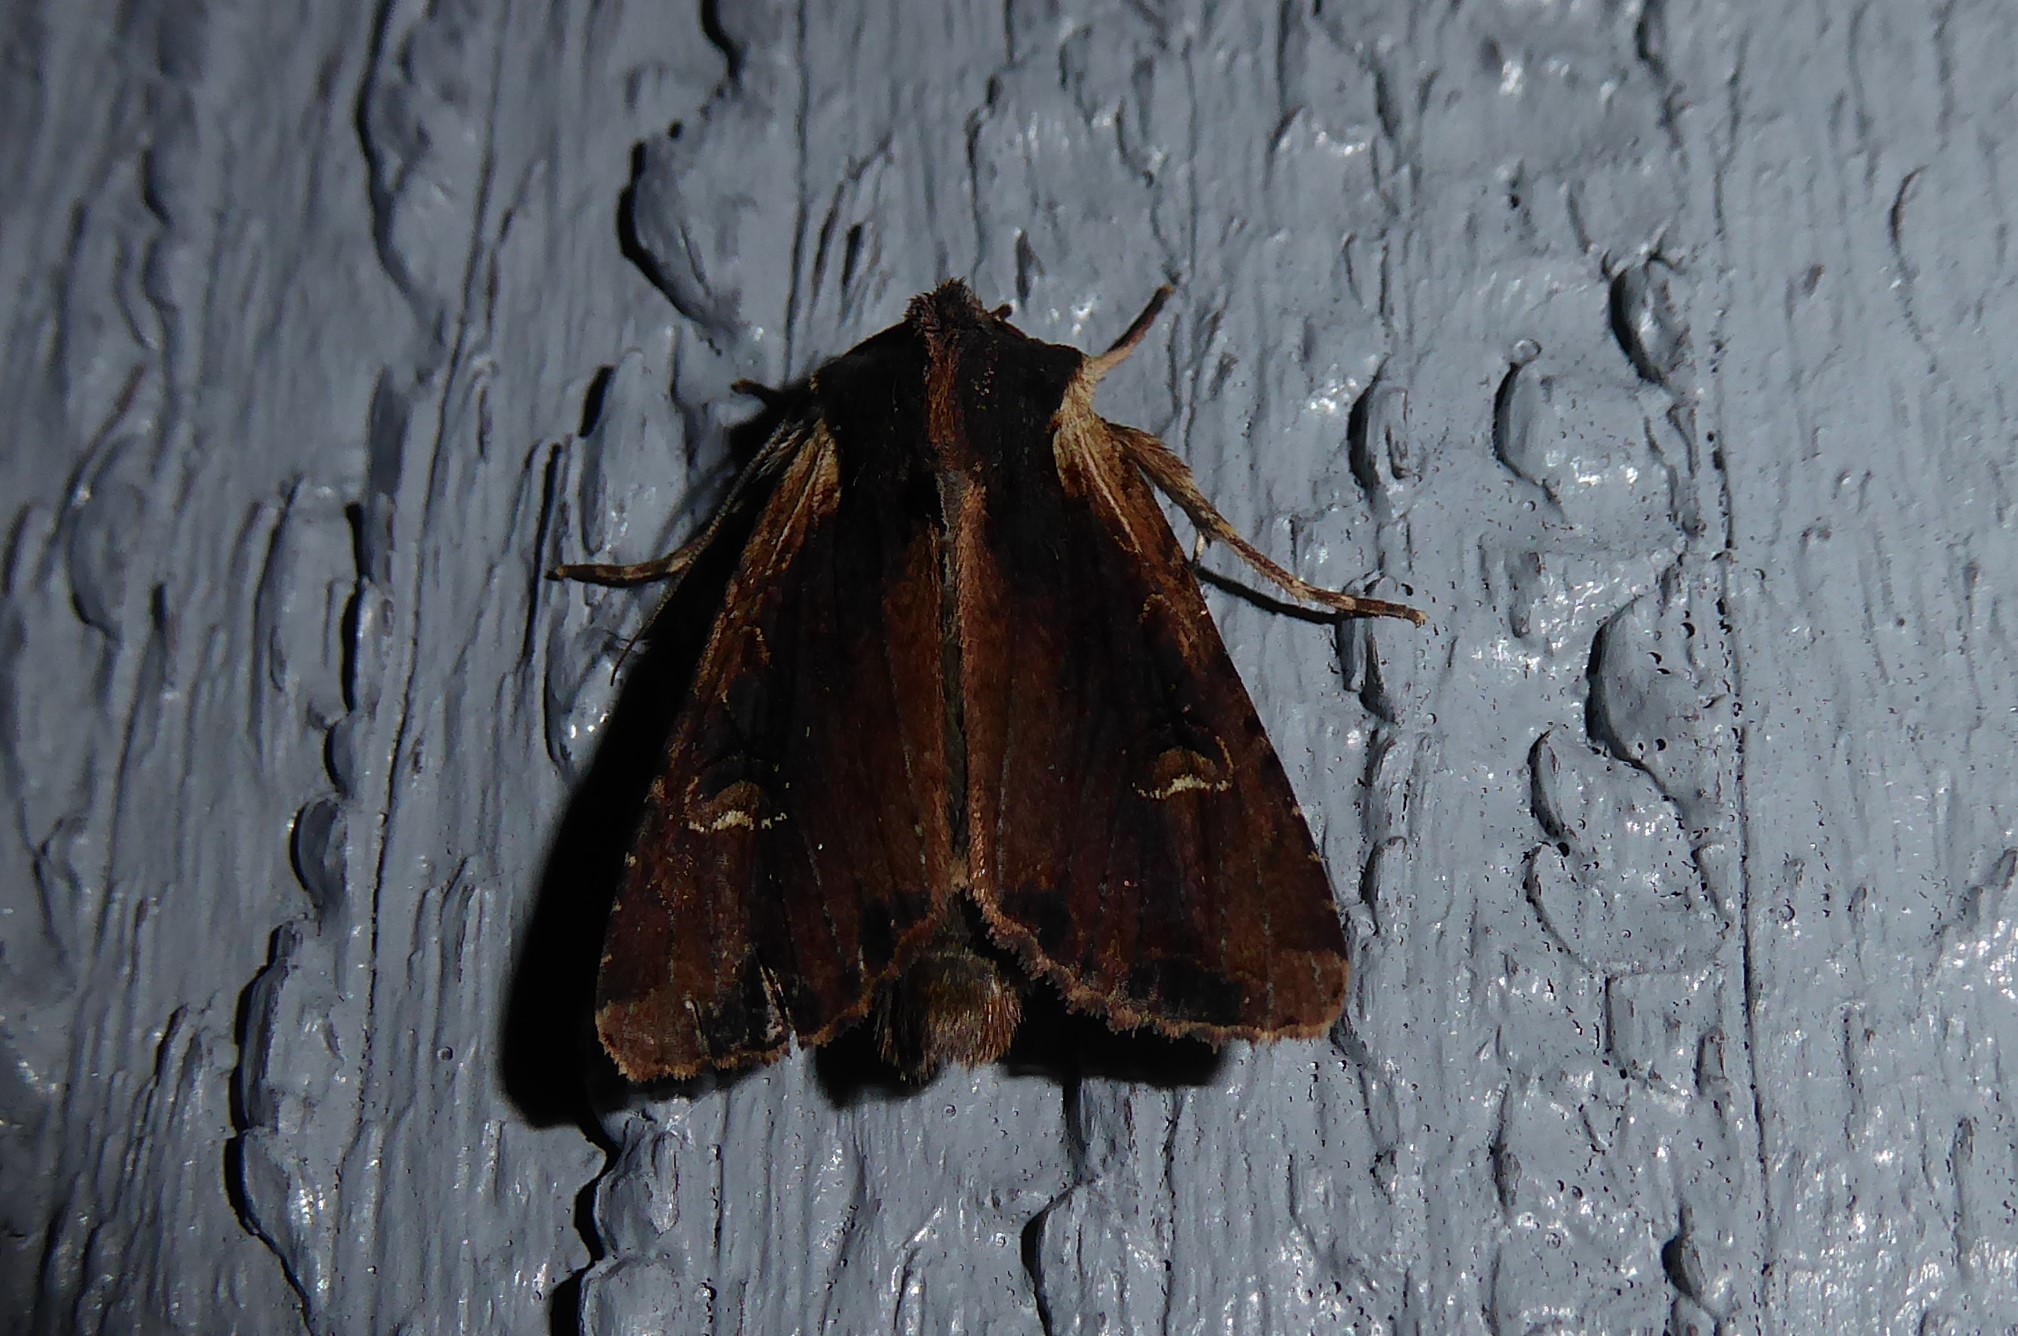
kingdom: Animalia
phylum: Arthropoda
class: Insecta
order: Lepidoptera
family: Noctuidae
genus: Ichneutica
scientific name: Ichneutica omoplaca
